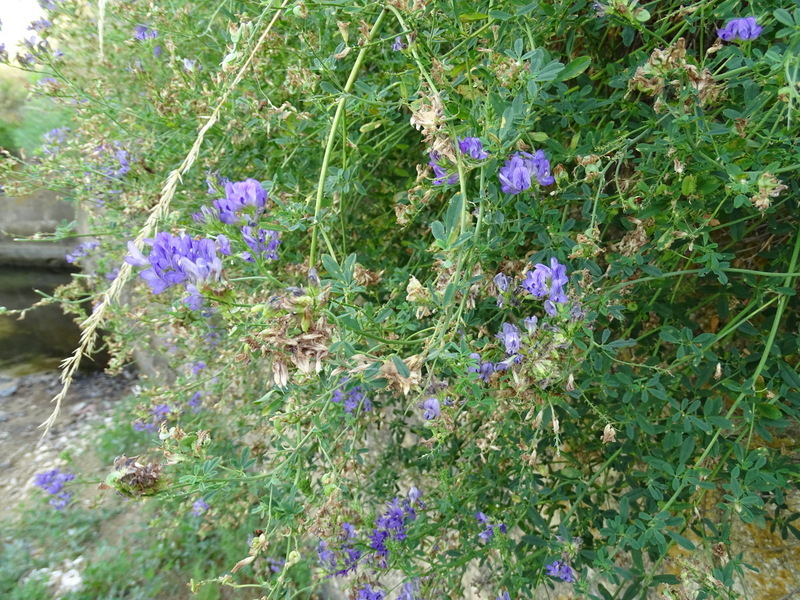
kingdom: Plantae
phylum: Tracheophyta
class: Magnoliopsida
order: Fabales
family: Fabaceae
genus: Medicago
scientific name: Medicago sativa
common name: Alfalfa
